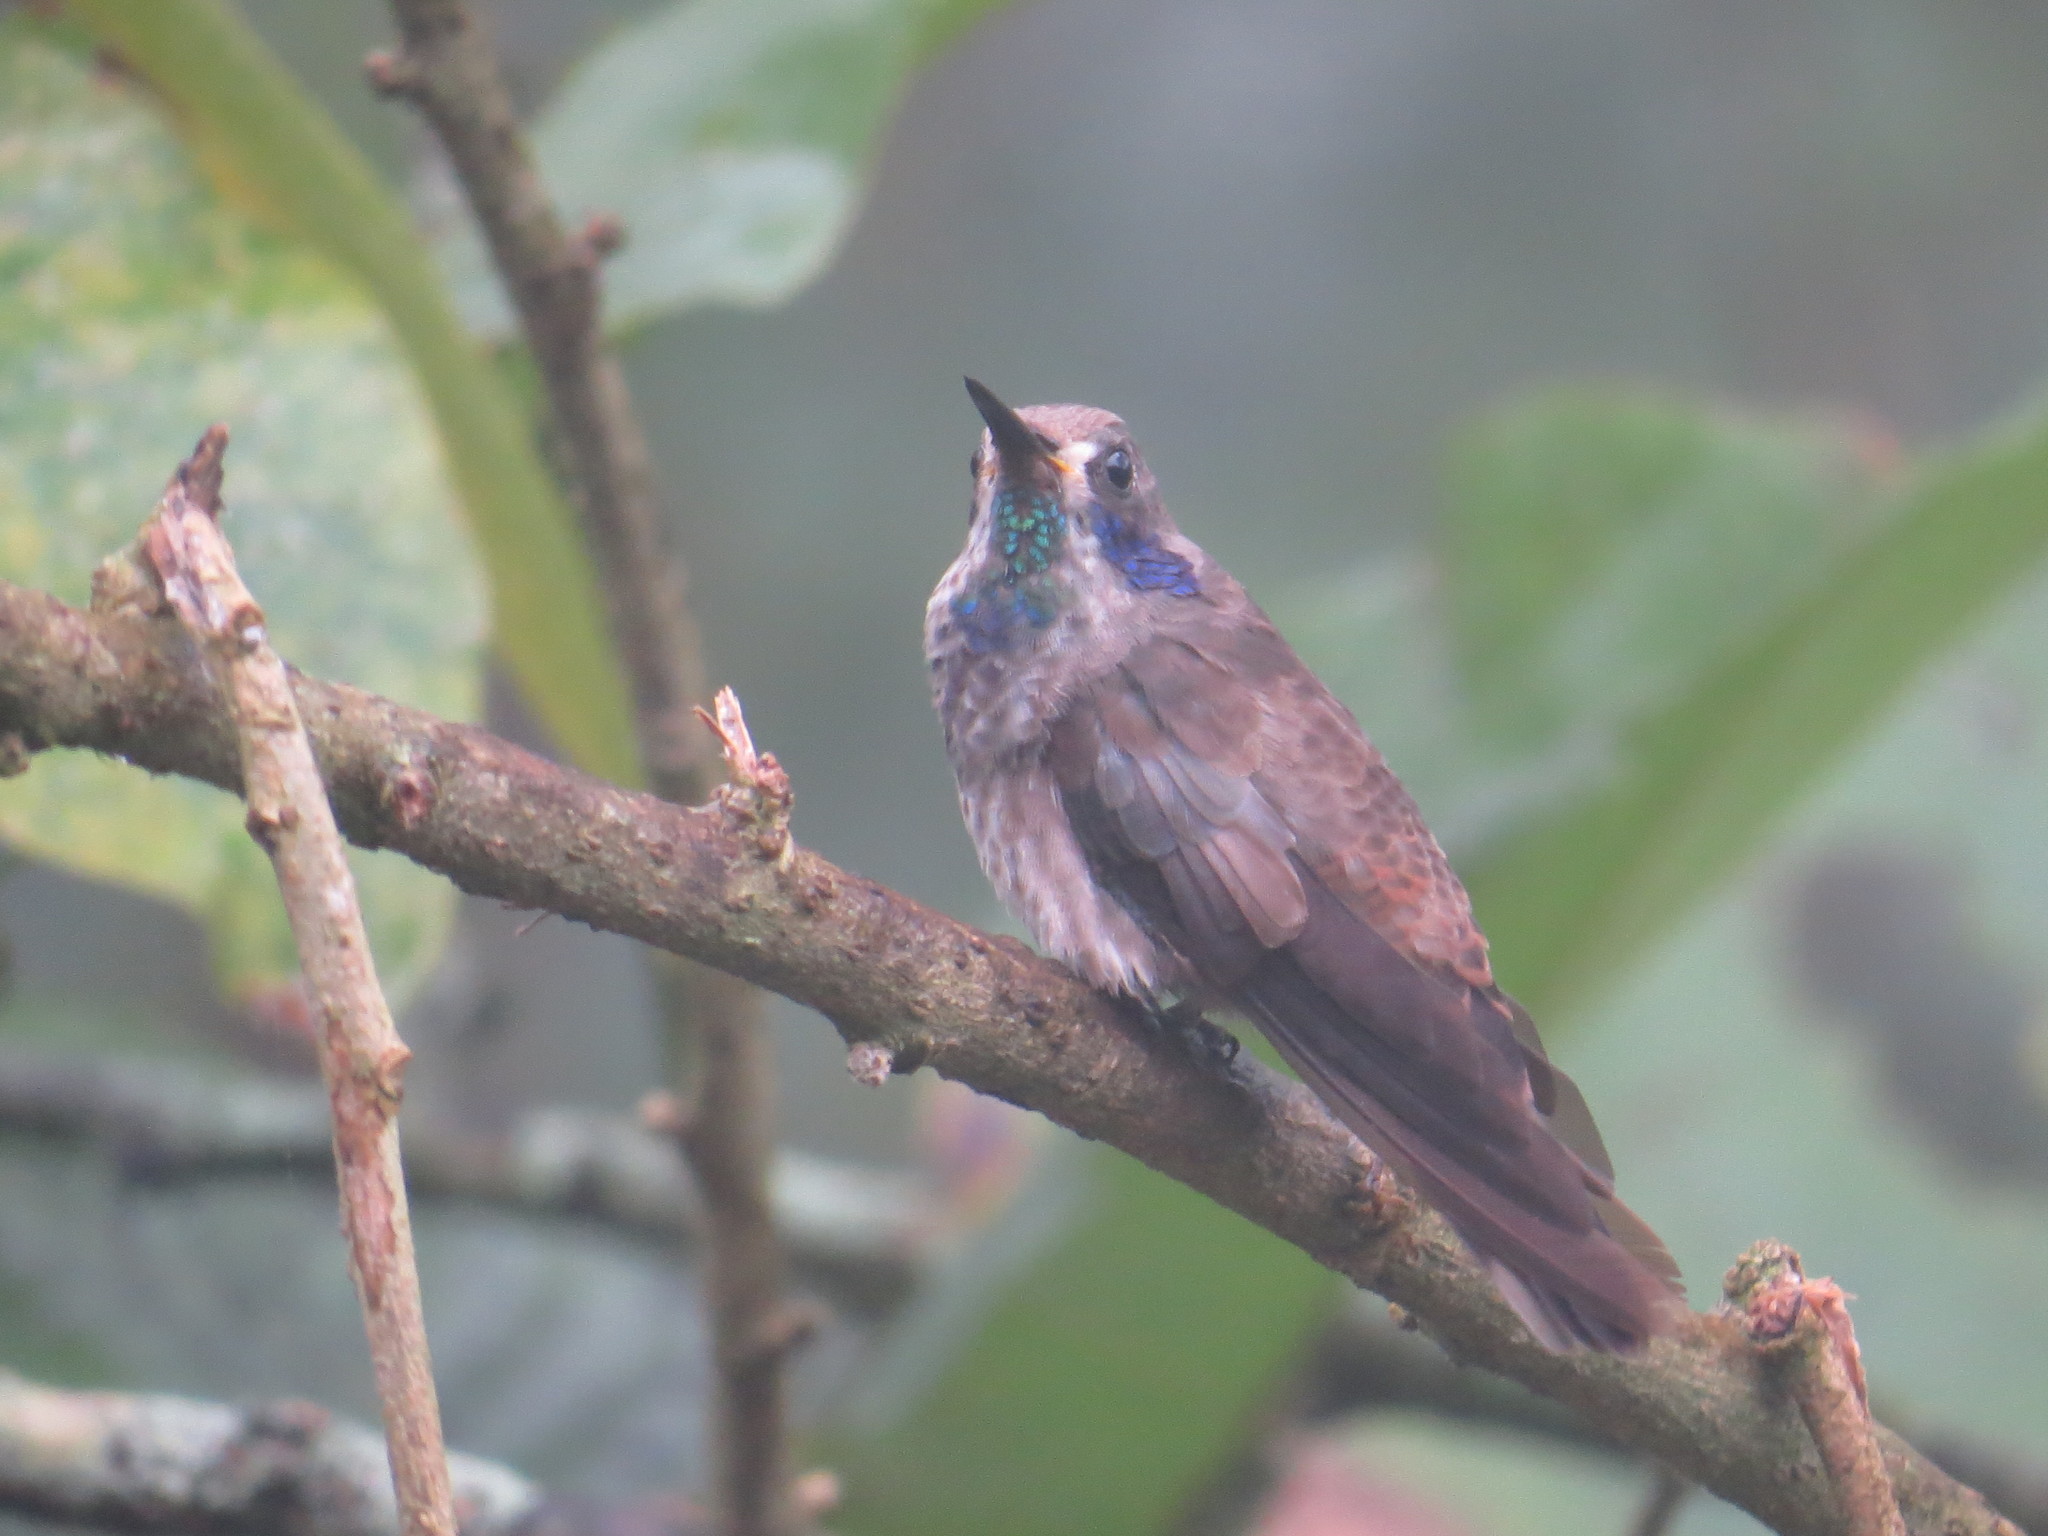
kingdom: Animalia
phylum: Chordata
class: Aves
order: Apodiformes
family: Trochilidae
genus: Colibri
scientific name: Colibri delphinae
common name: Brown violetear
